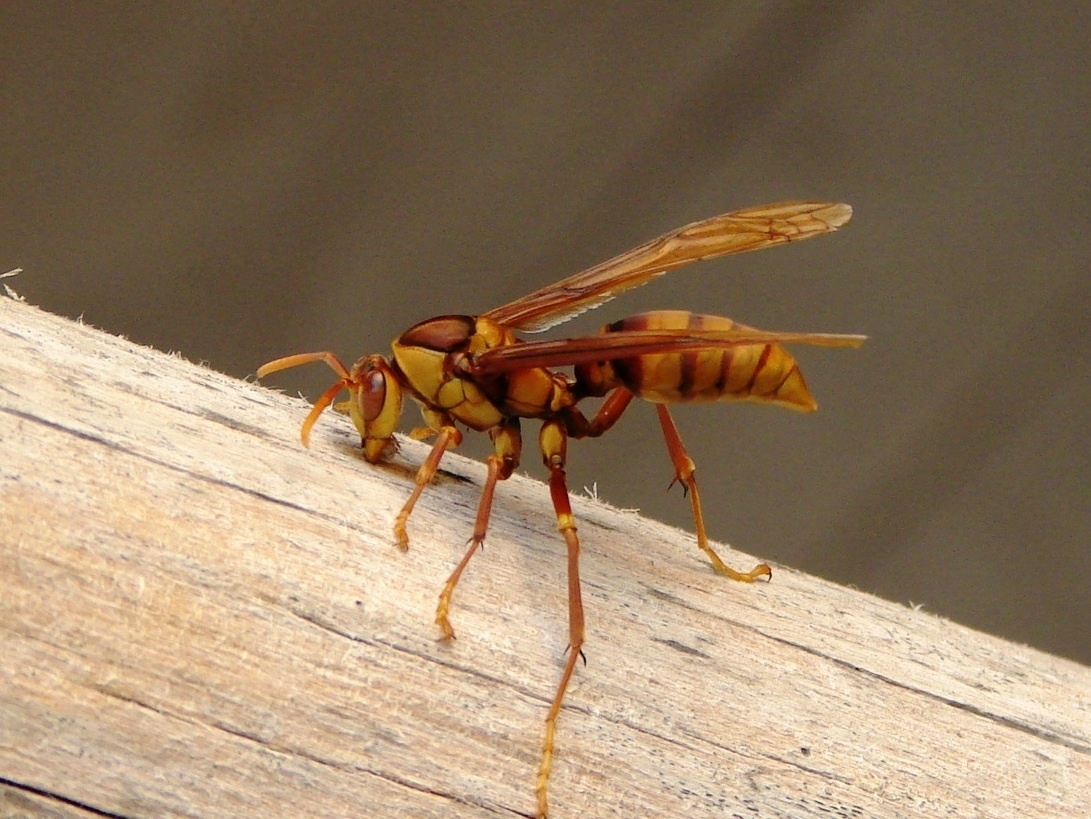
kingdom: Animalia
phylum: Arthropoda
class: Insecta
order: Hymenoptera
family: Eumenidae
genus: Polistes
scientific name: Polistes carnifex
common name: Paper wasp
